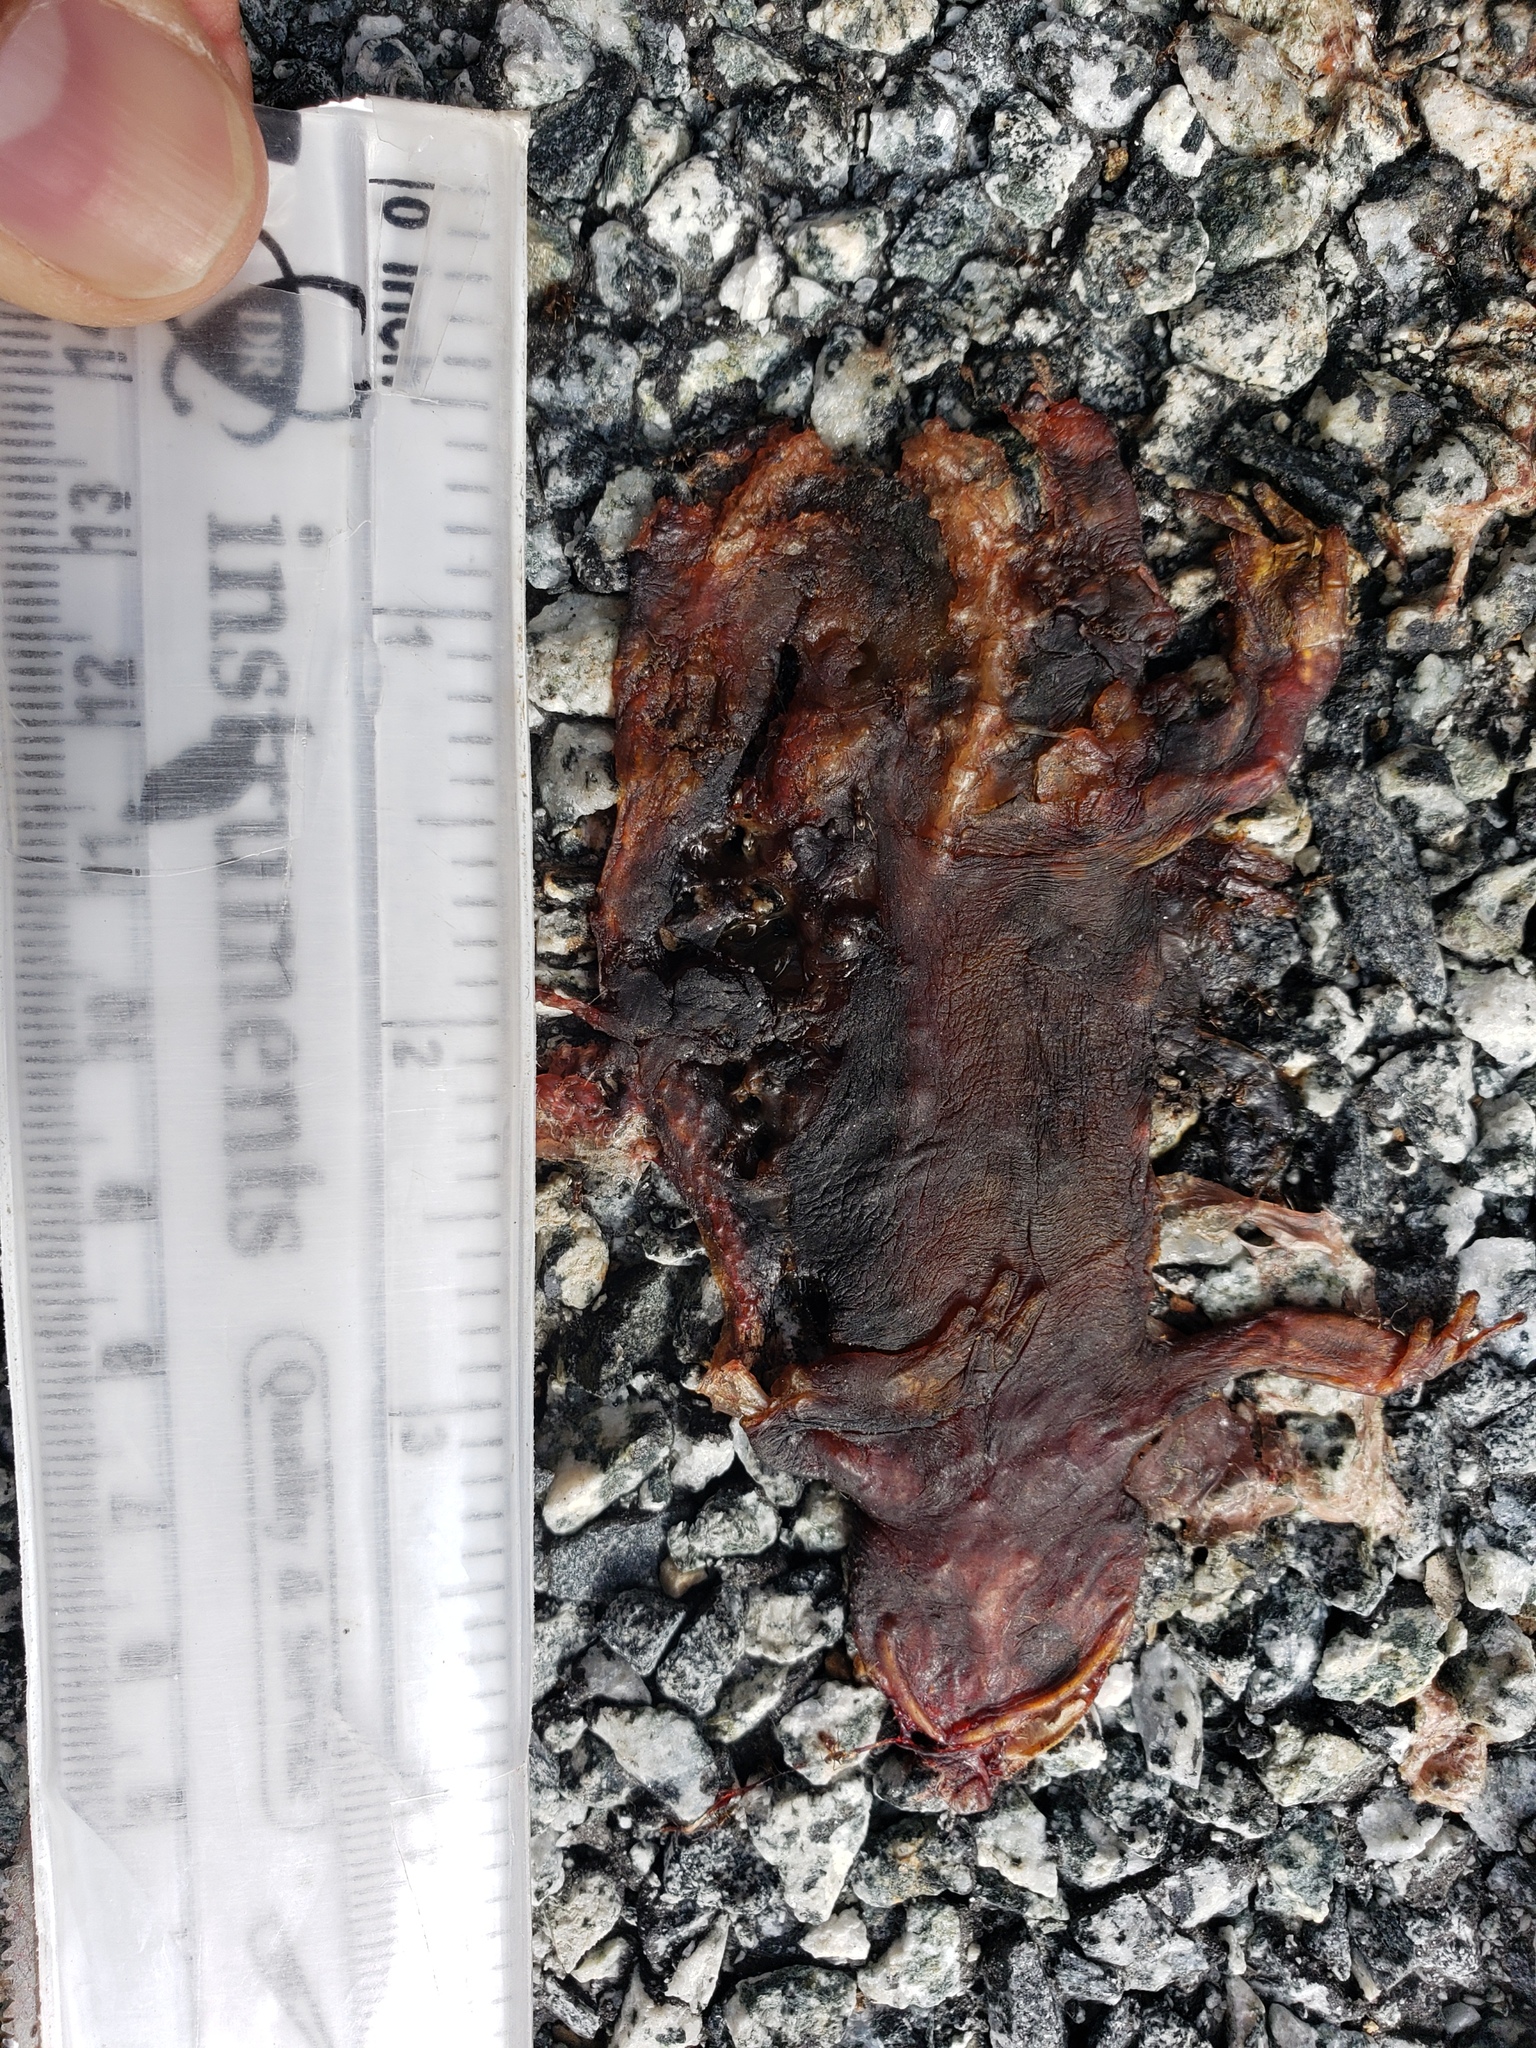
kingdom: Animalia
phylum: Chordata
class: Amphibia
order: Caudata
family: Salamandridae
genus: Taricha
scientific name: Taricha
